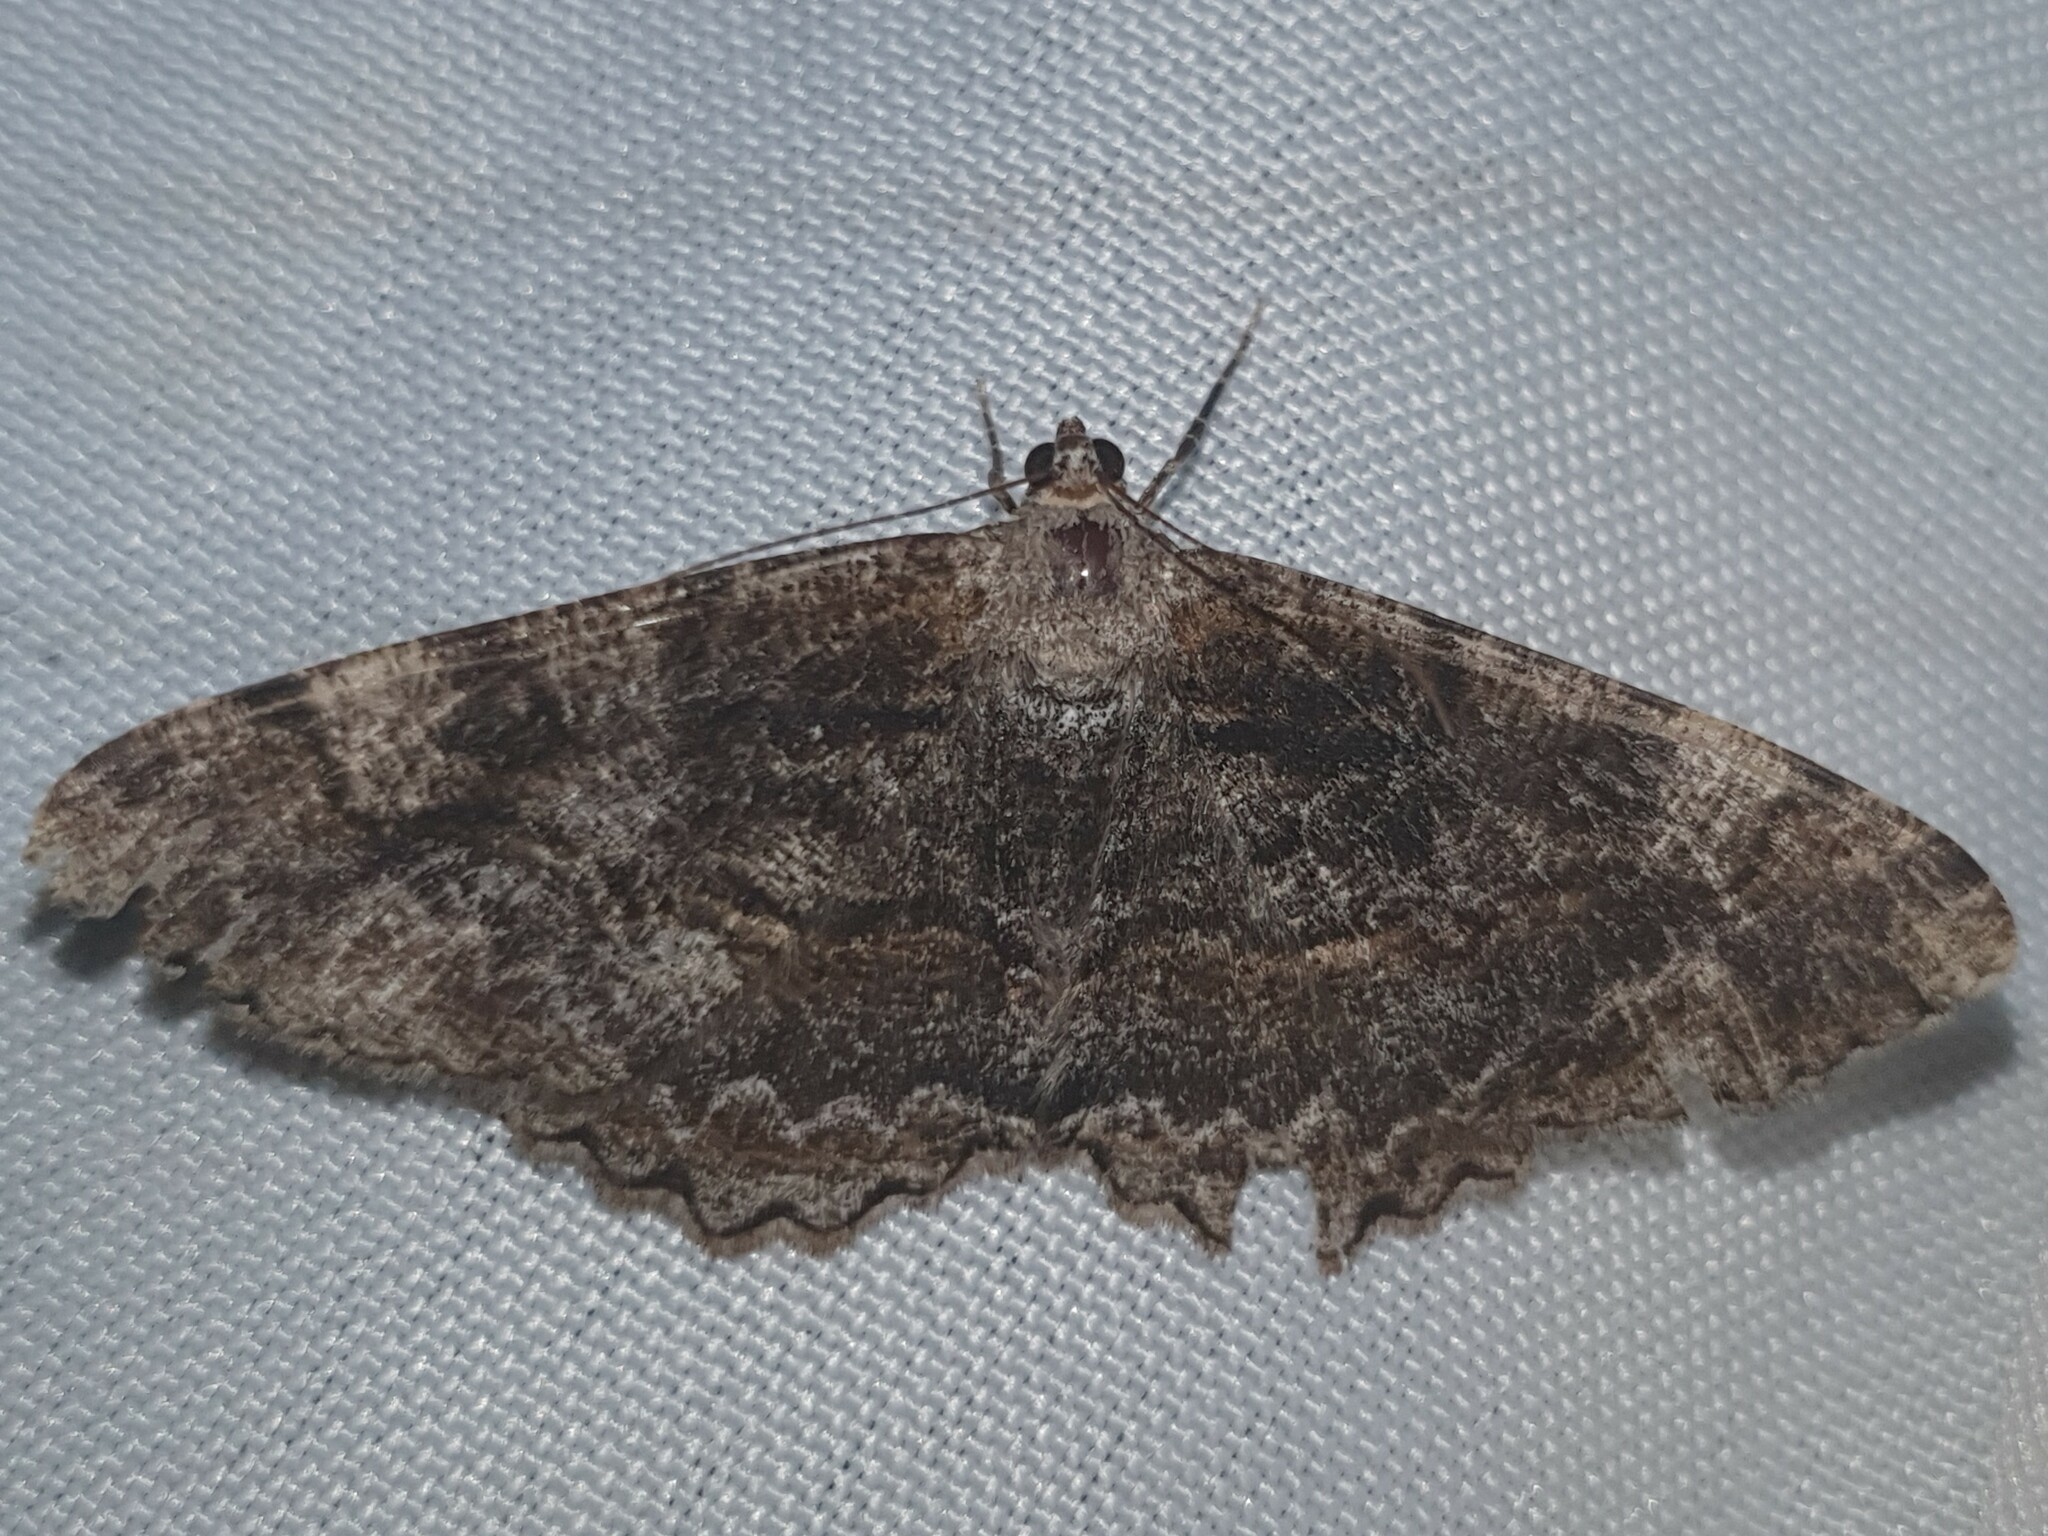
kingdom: Animalia
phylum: Arthropoda
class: Insecta
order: Lepidoptera
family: Geometridae
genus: Alcis
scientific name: Alcis repandata
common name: Mottled beauty
